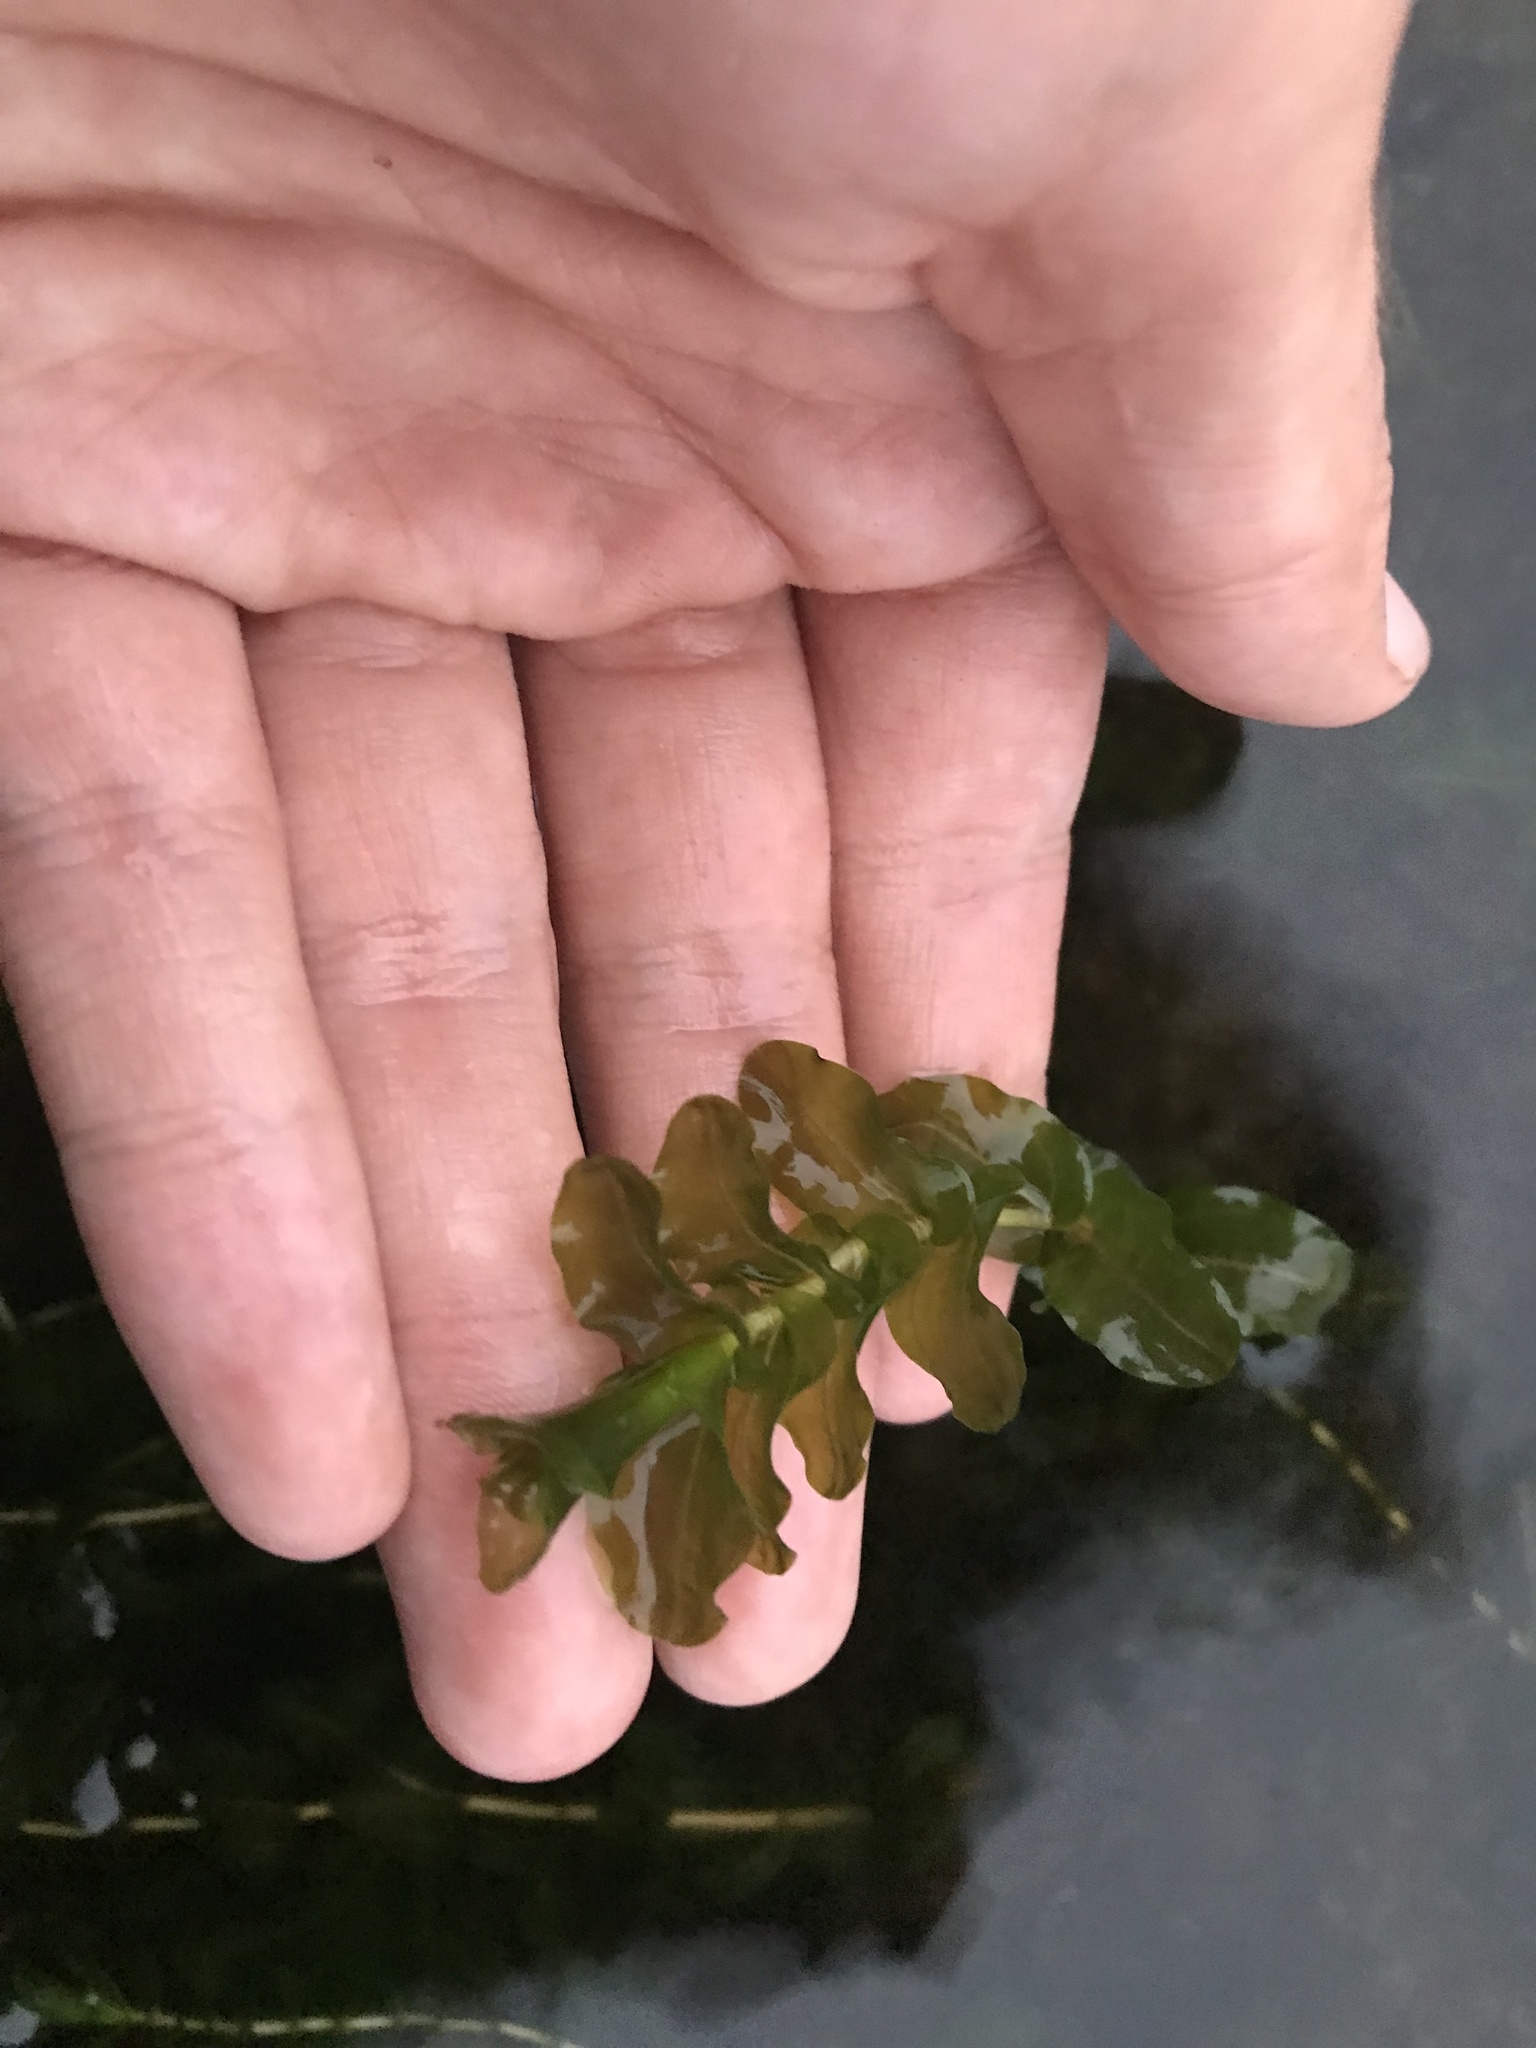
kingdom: Plantae
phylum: Tracheophyta
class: Liliopsida
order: Alismatales
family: Potamogetonaceae
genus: Potamogeton
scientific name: Potamogeton perfoliatus
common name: Perfoliate pondweed
